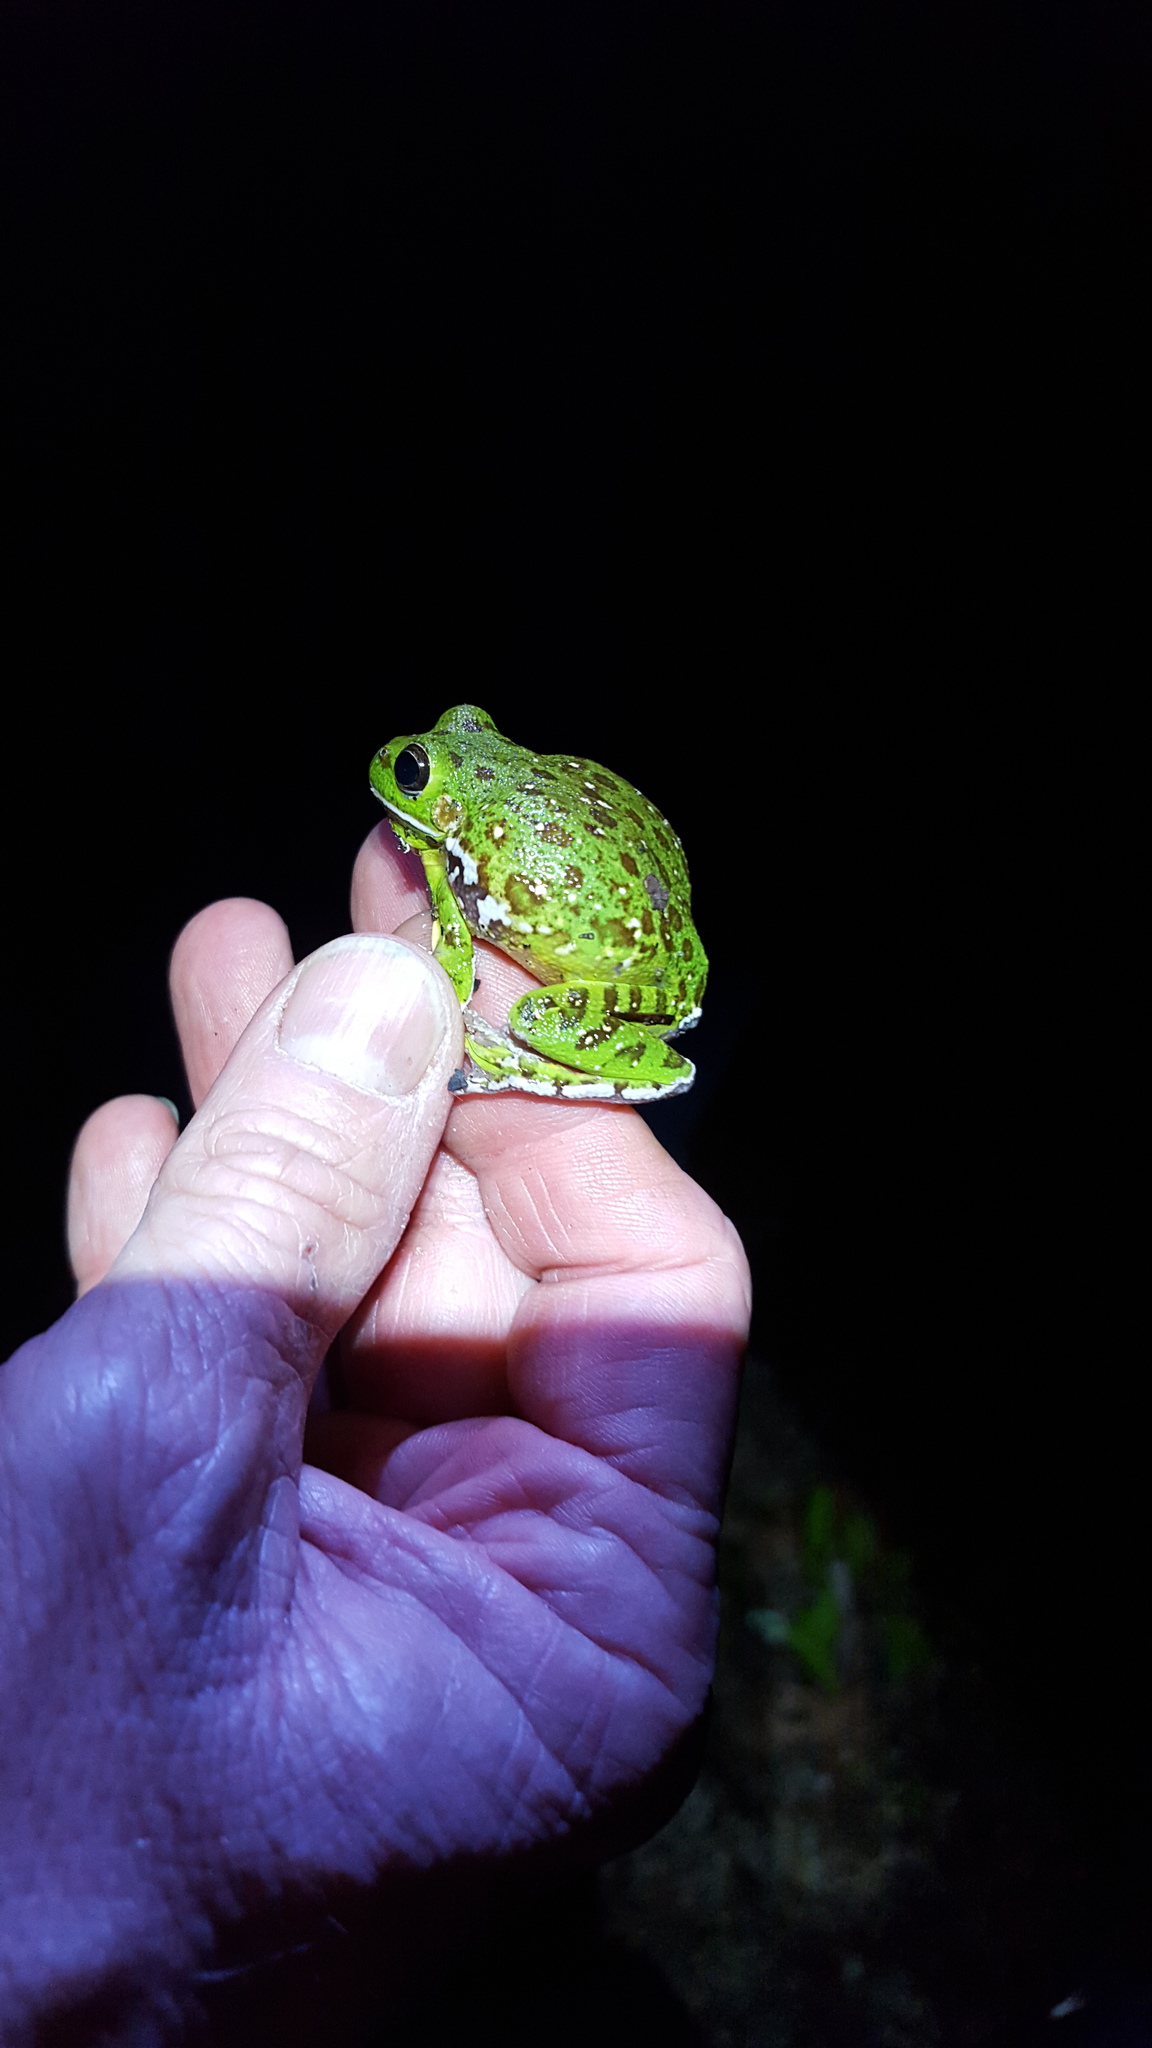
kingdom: Animalia
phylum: Chordata
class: Amphibia
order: Anura
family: Hylidae
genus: Dryophytes
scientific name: Dryophytes gratiosus
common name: Barking treefrog
